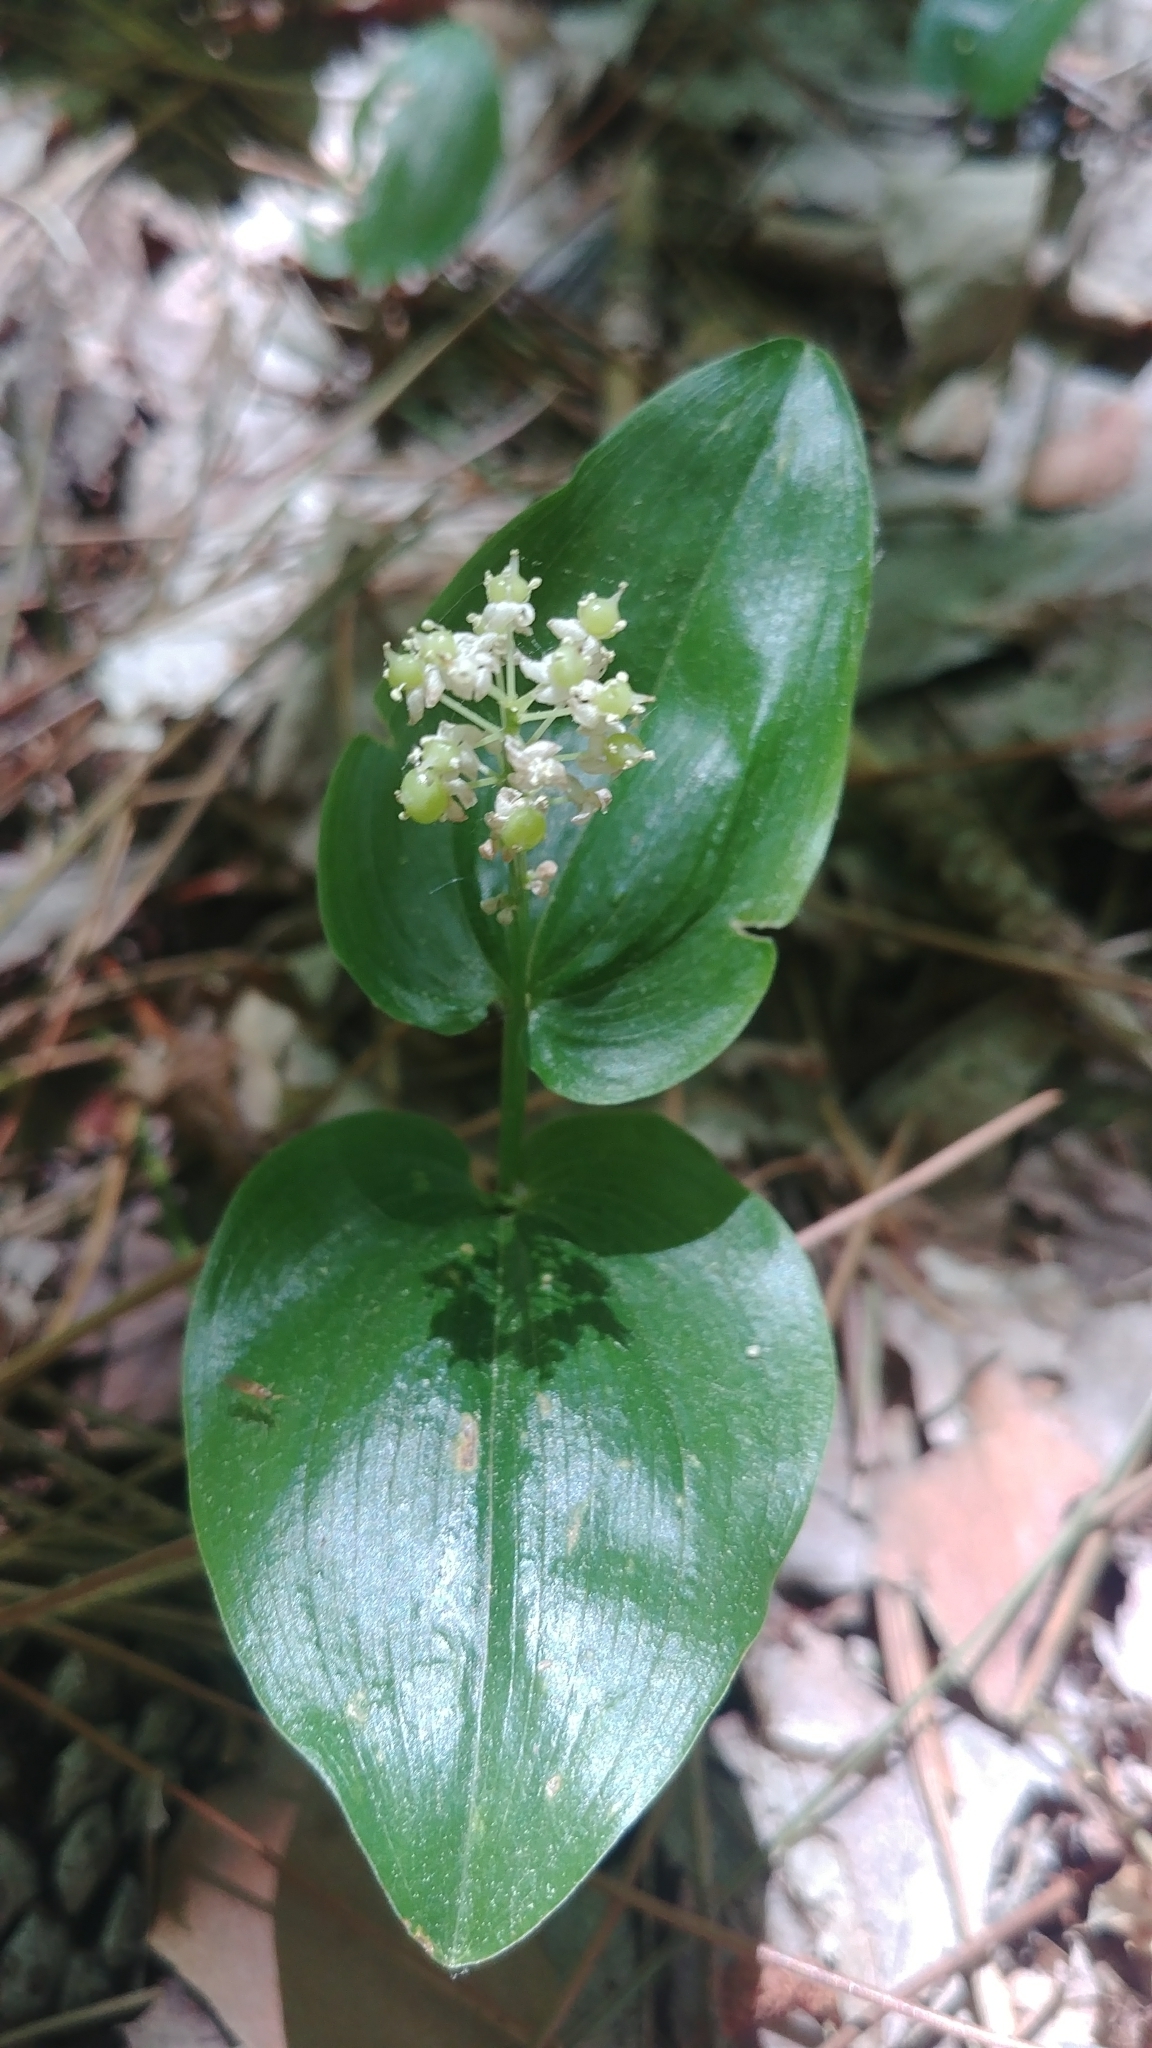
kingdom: Plantae
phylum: Tracheophyta
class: Liliopsida
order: Asparagales
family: Asparagaceae
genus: Maianthemum
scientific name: Maianthemum canadense
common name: False lily-of-the-valley
